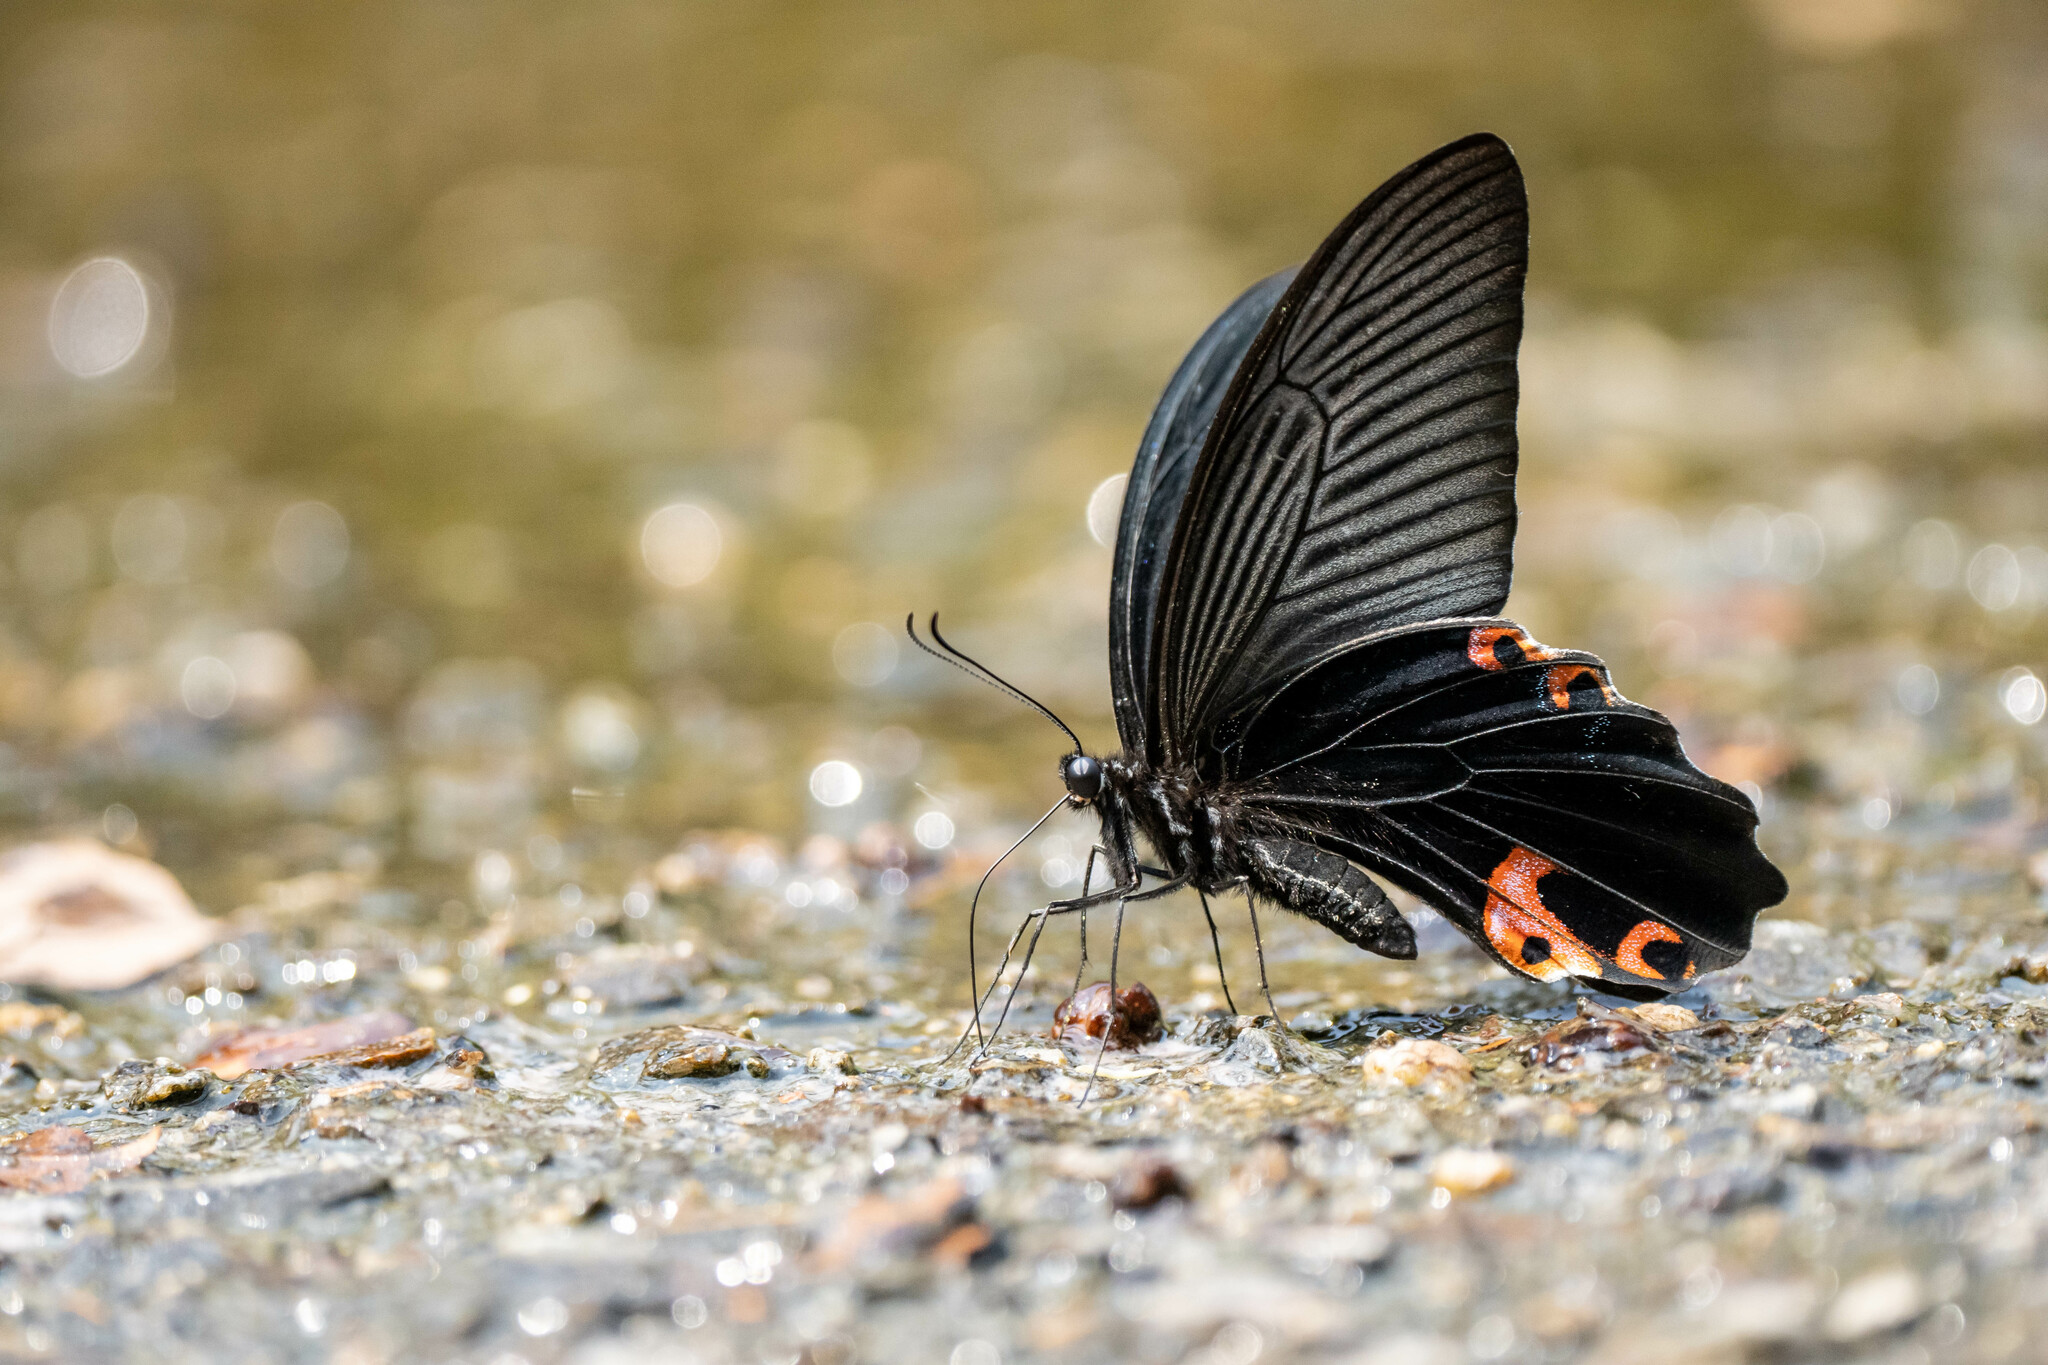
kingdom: Animalia
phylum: Arthropoda
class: Insecta
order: Lepidoptera
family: Papilionidae
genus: Papilio
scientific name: Papilio protenor
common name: Spangle
